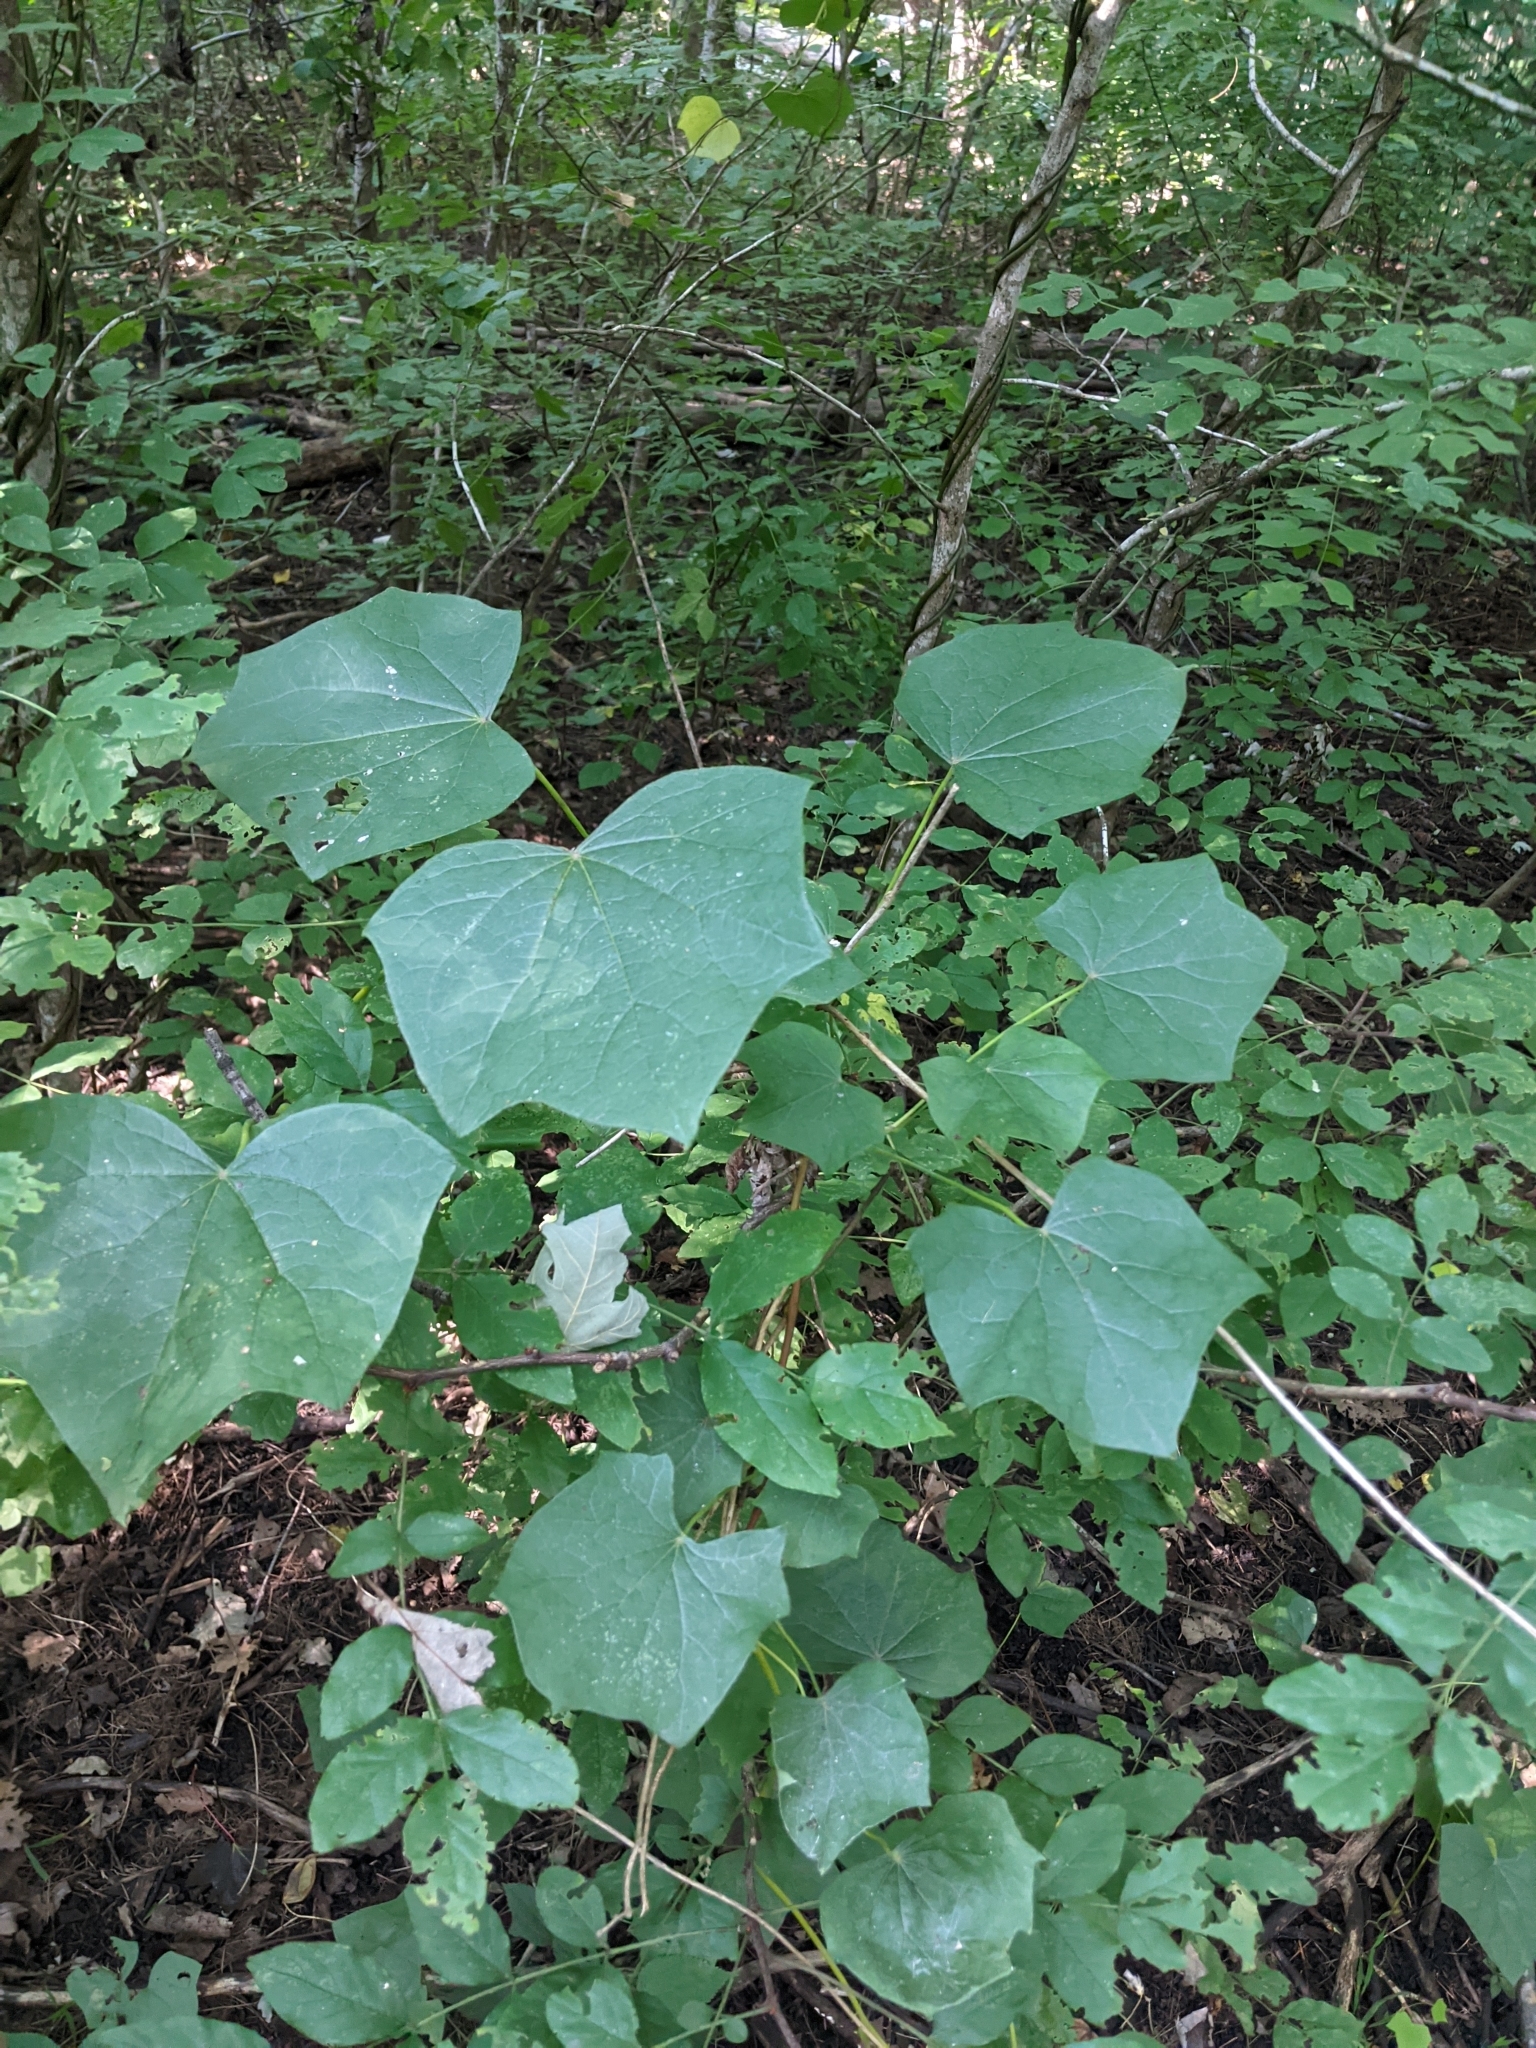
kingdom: Plantae
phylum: Tracheophyta
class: Magnoliopsida
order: Ranunculales
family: Menispermaceae
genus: Menispermum
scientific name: Menispermum canadense
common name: Moonseed
